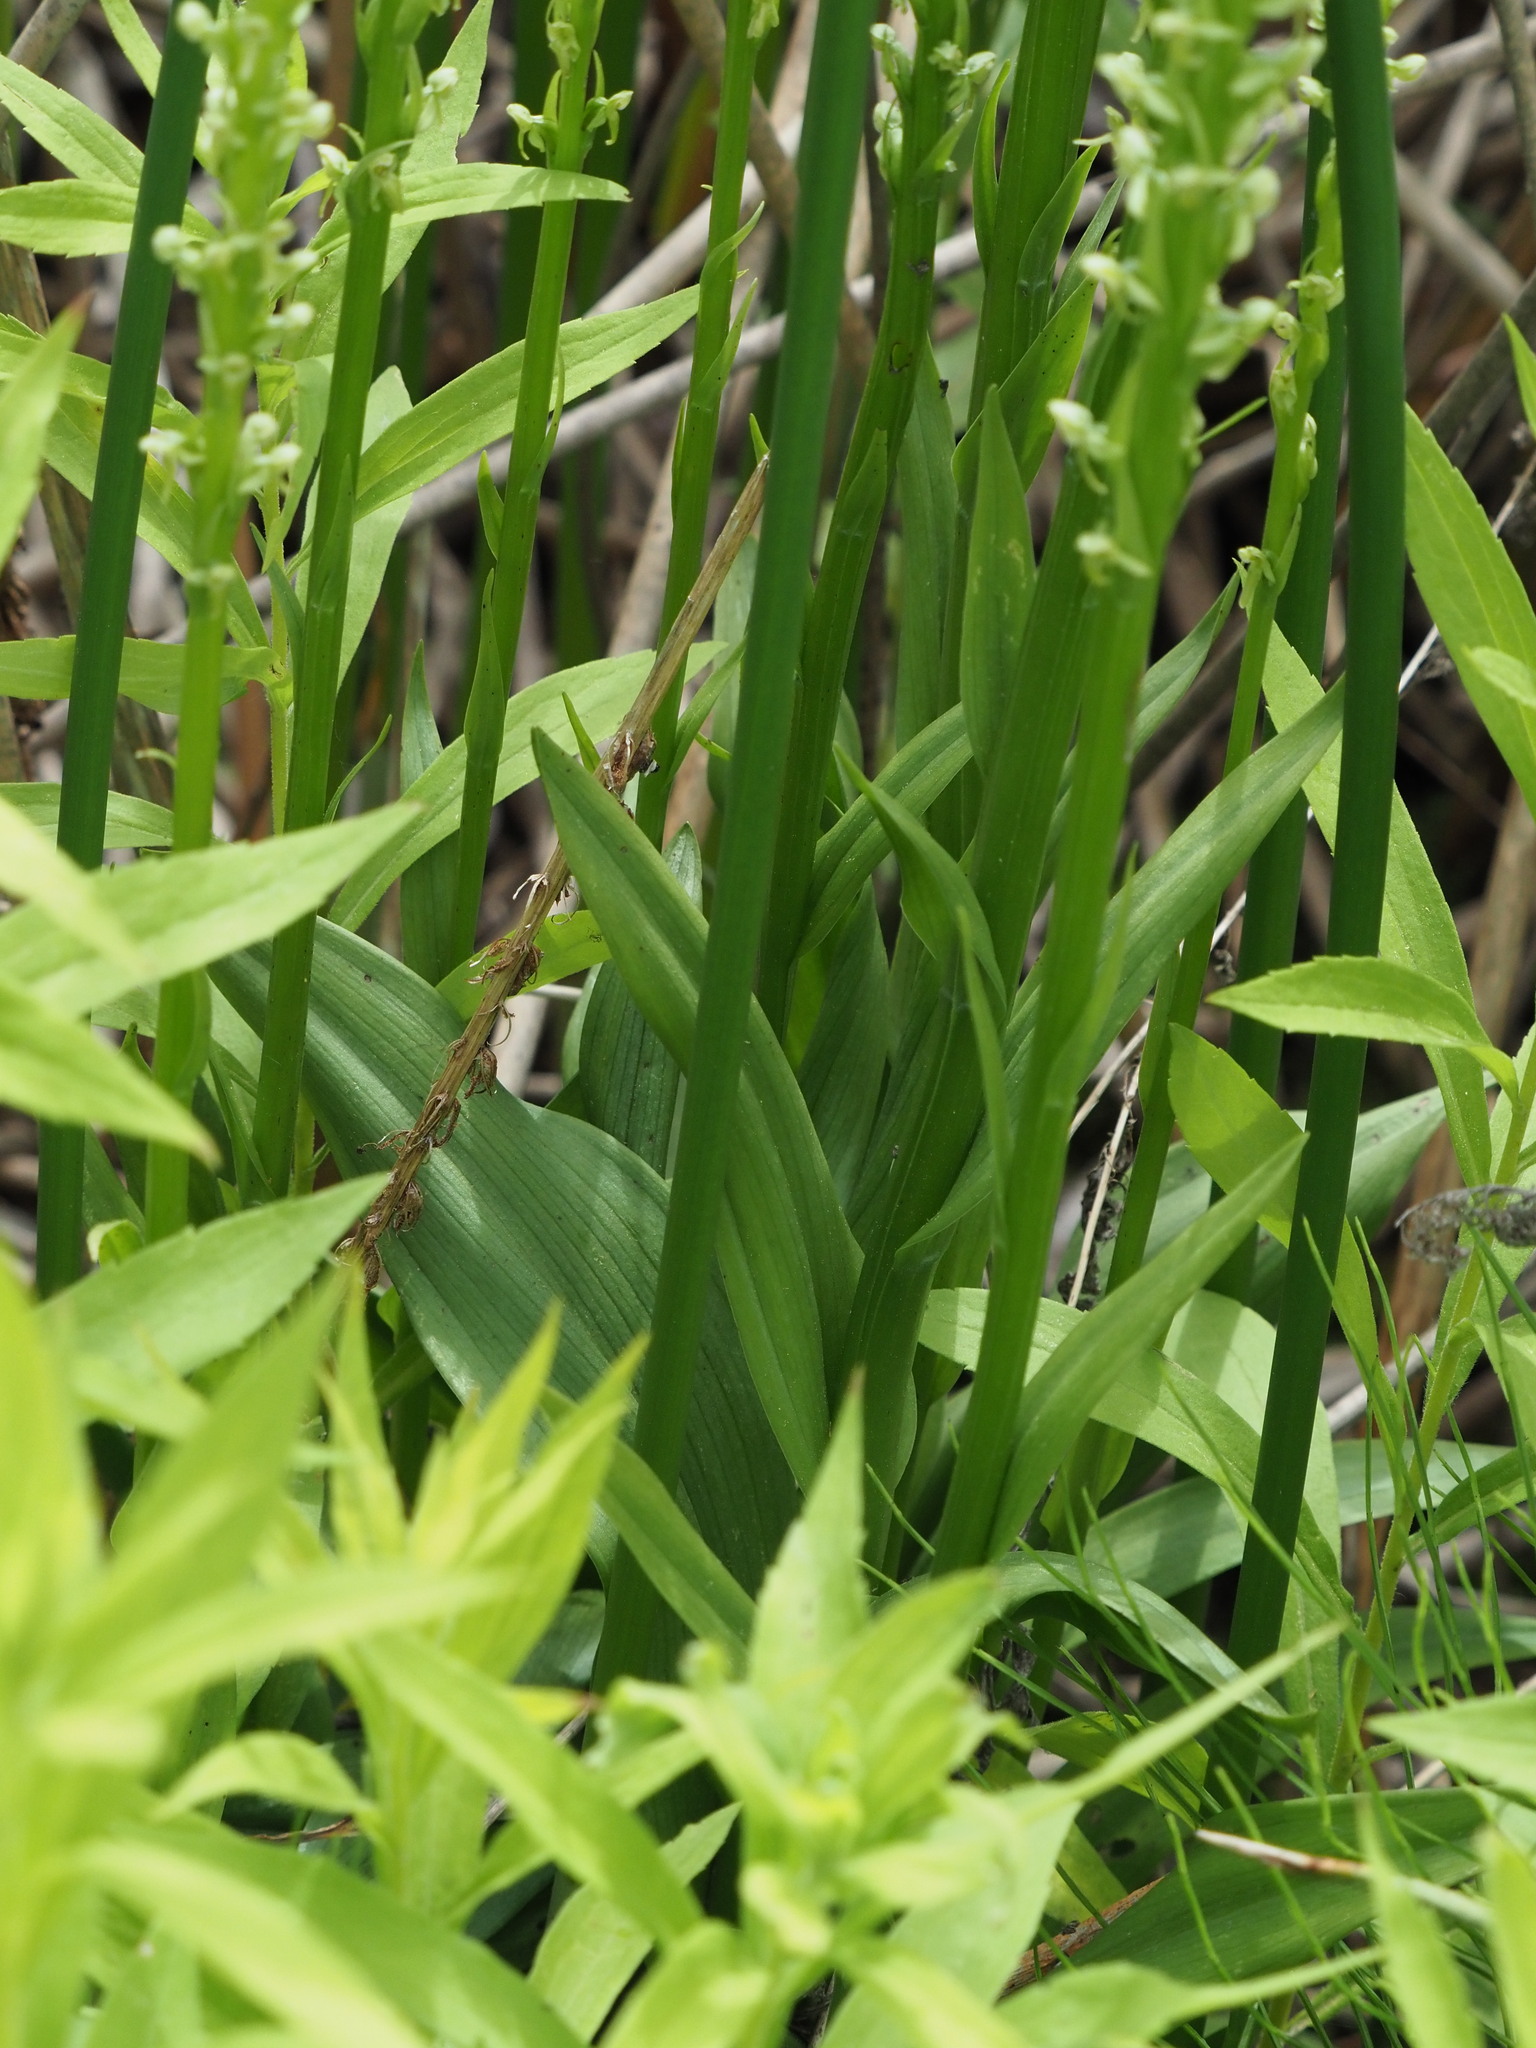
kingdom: Plantae
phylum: Tracheophyta
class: Liliopsida
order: Asparagales
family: Orchidaceae
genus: Platanthera
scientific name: Platanthera huronensis
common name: Fragrant green orchid
